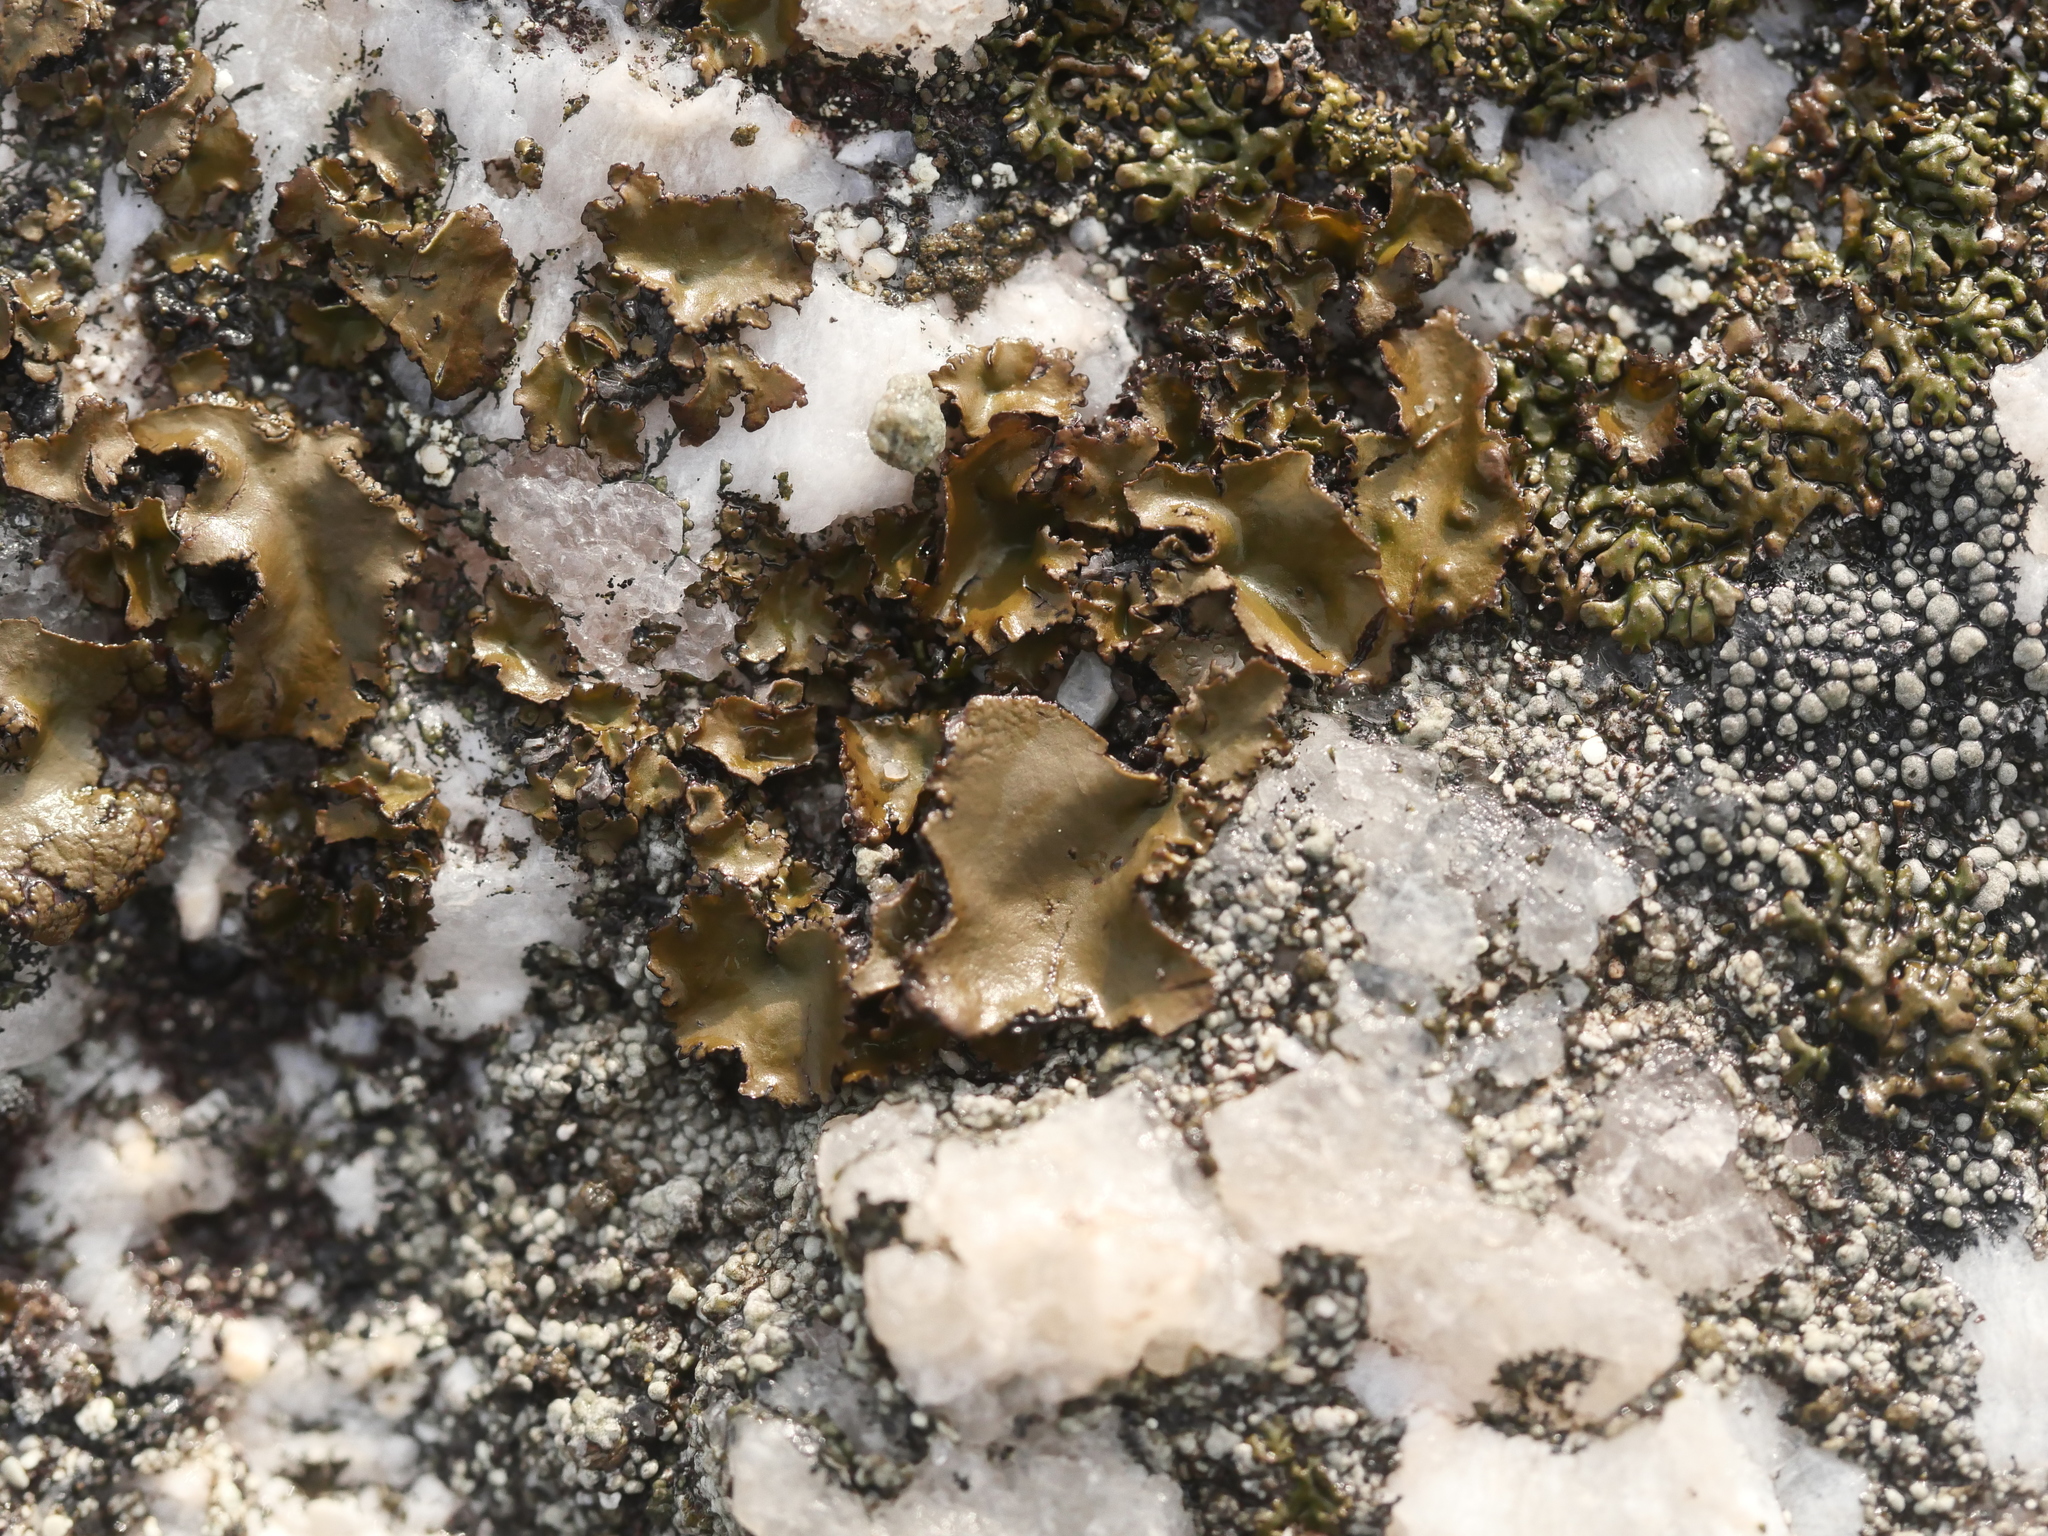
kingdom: Fungi
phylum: Ascomycota
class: Lecanoromycetes
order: Umbilicariales
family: Umbilicariaceae
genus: Umbilicaria
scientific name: Umbilicaria mammulata
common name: Smooth rock tripe
